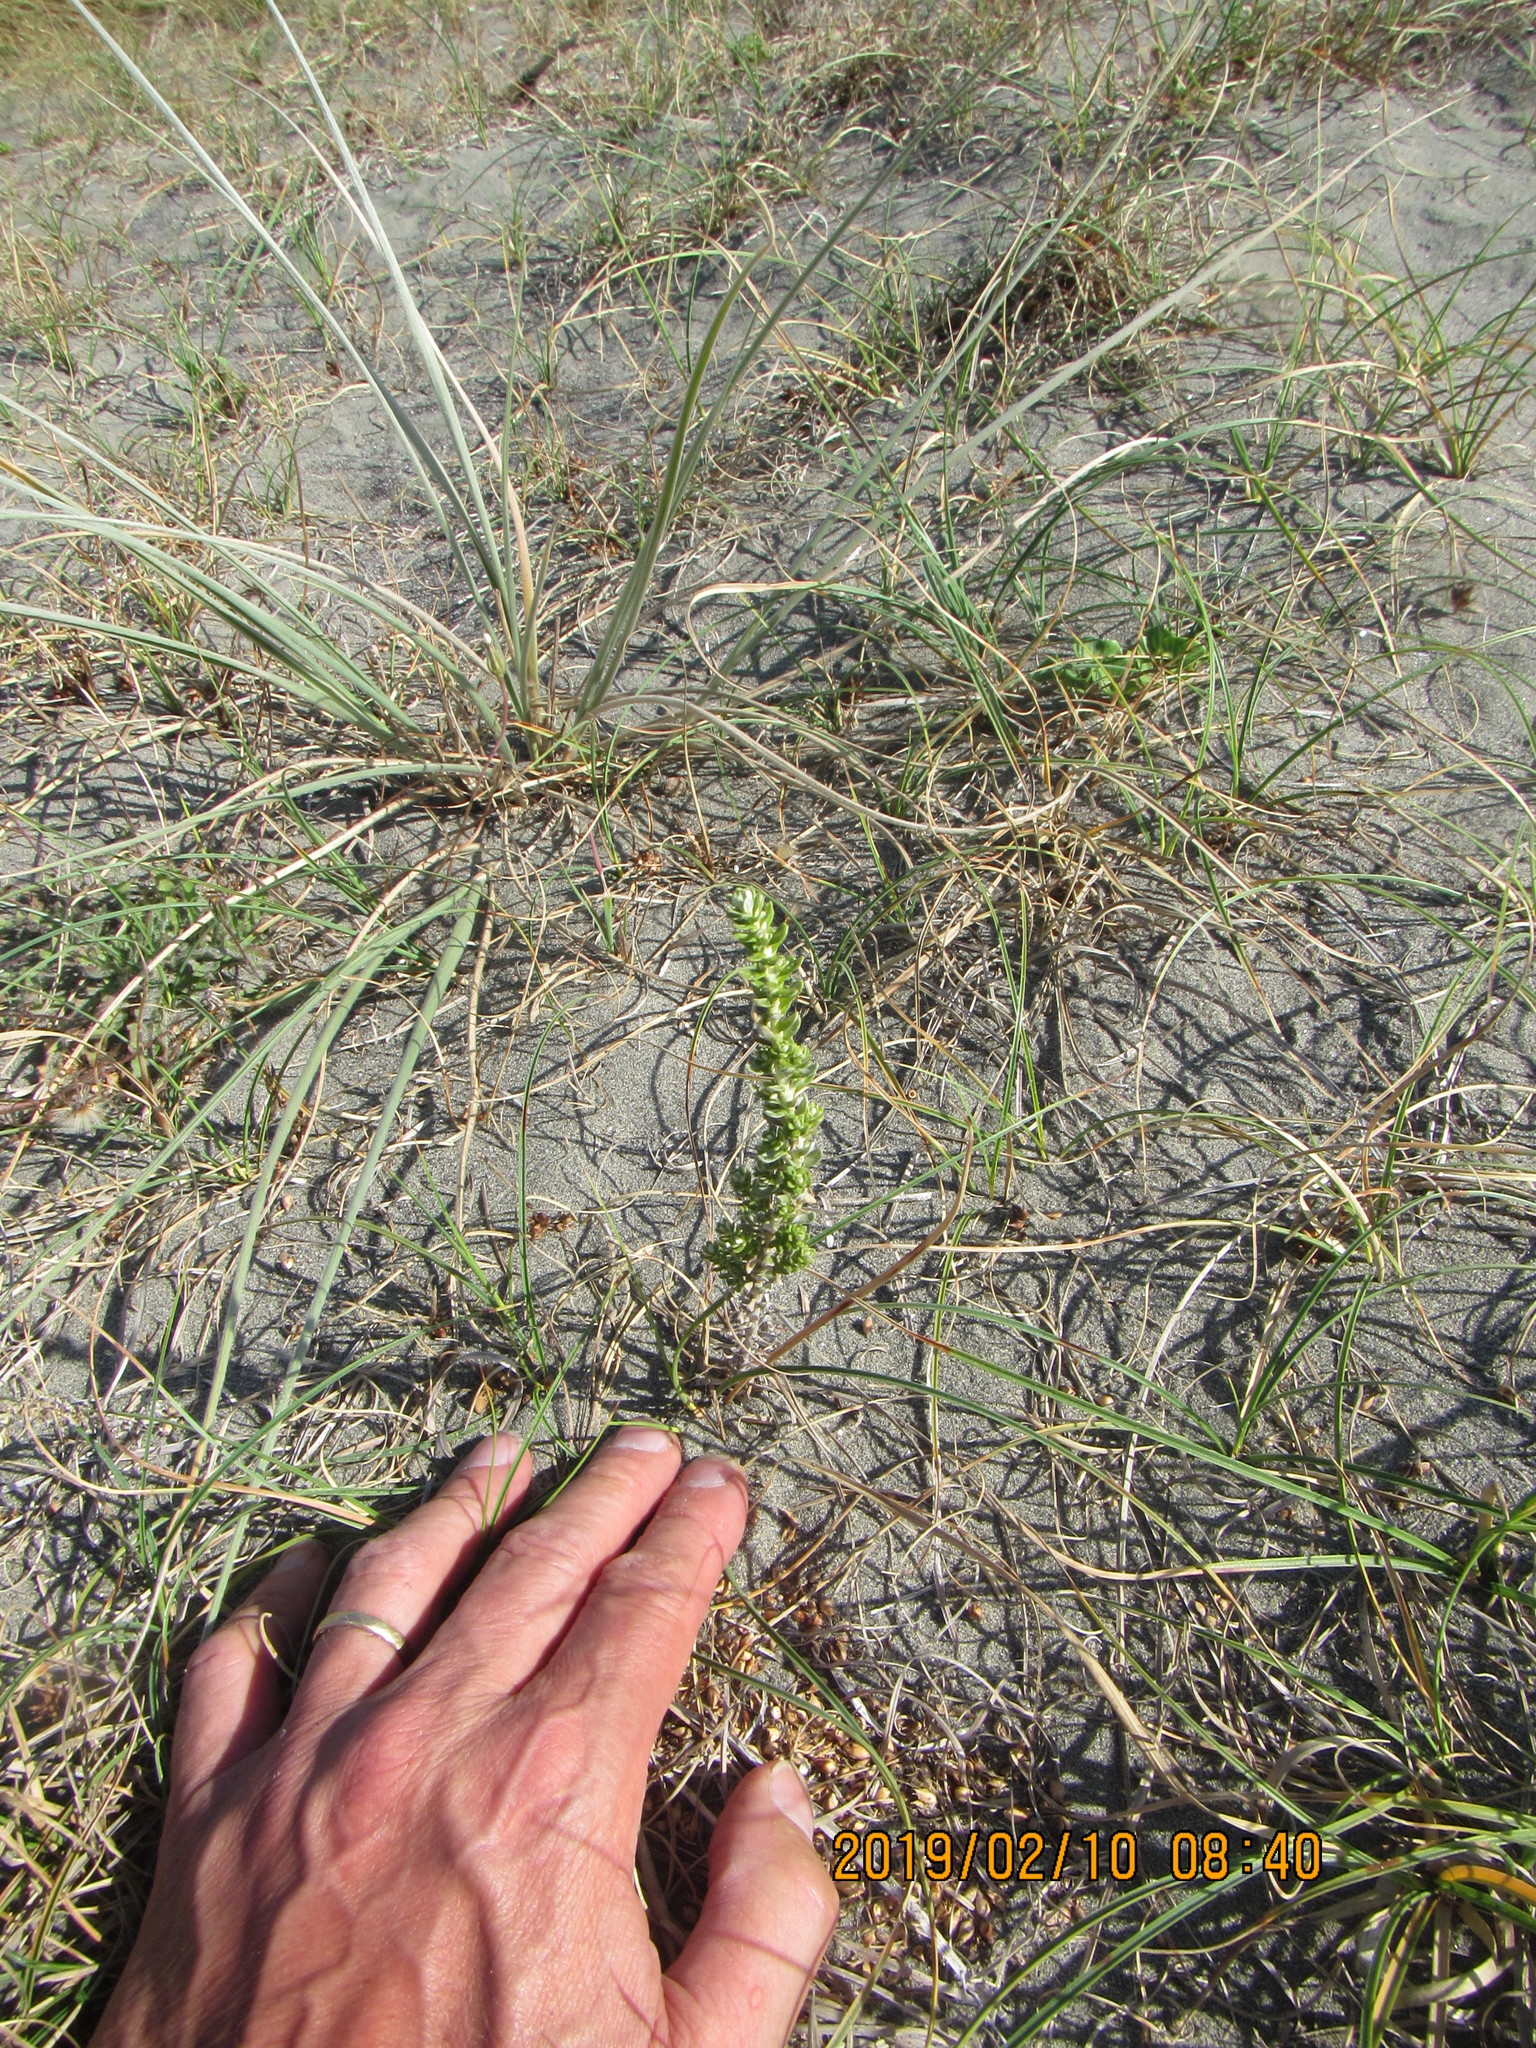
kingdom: Plantae
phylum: Tracheophyta
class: Magnoliopsida
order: Asterales
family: Asteraceae
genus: Ozothamnus
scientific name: Ozothamnus leptophyllus
